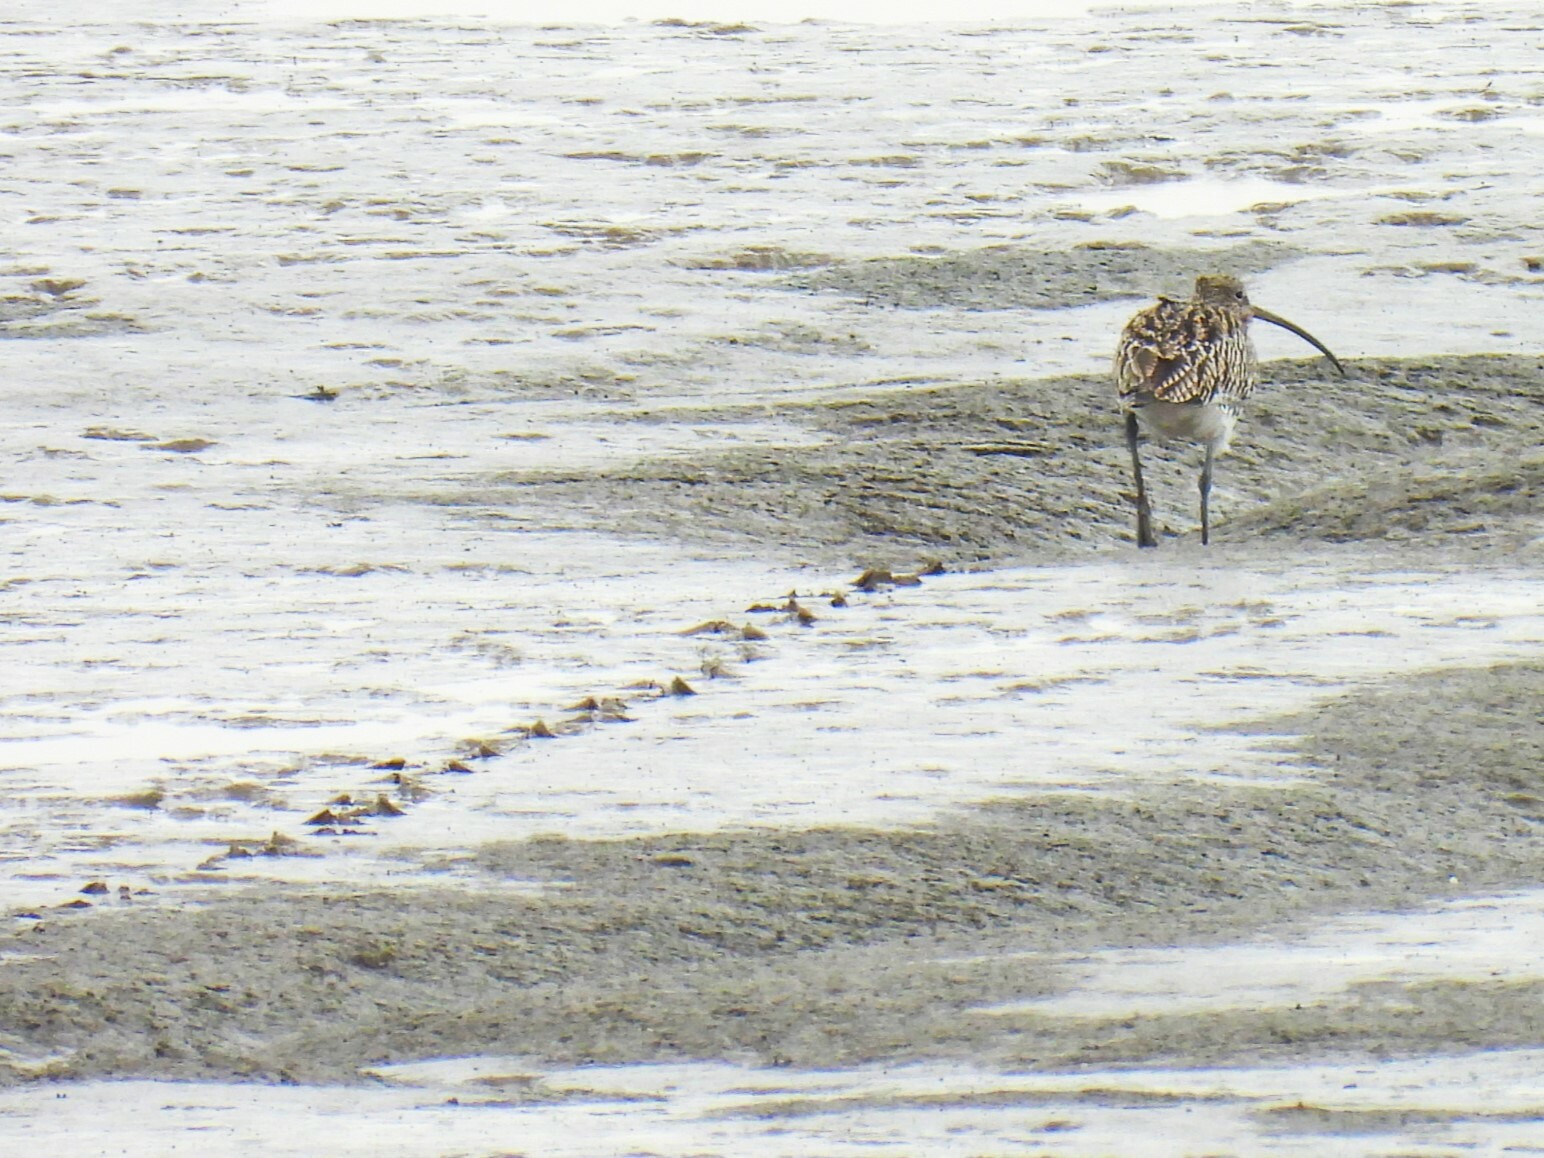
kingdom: Animalia
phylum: Chordata
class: Aves
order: Charadriiformes
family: Scolopacidae
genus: Numenius
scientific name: Numenius arquata
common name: Eurasian curlew
